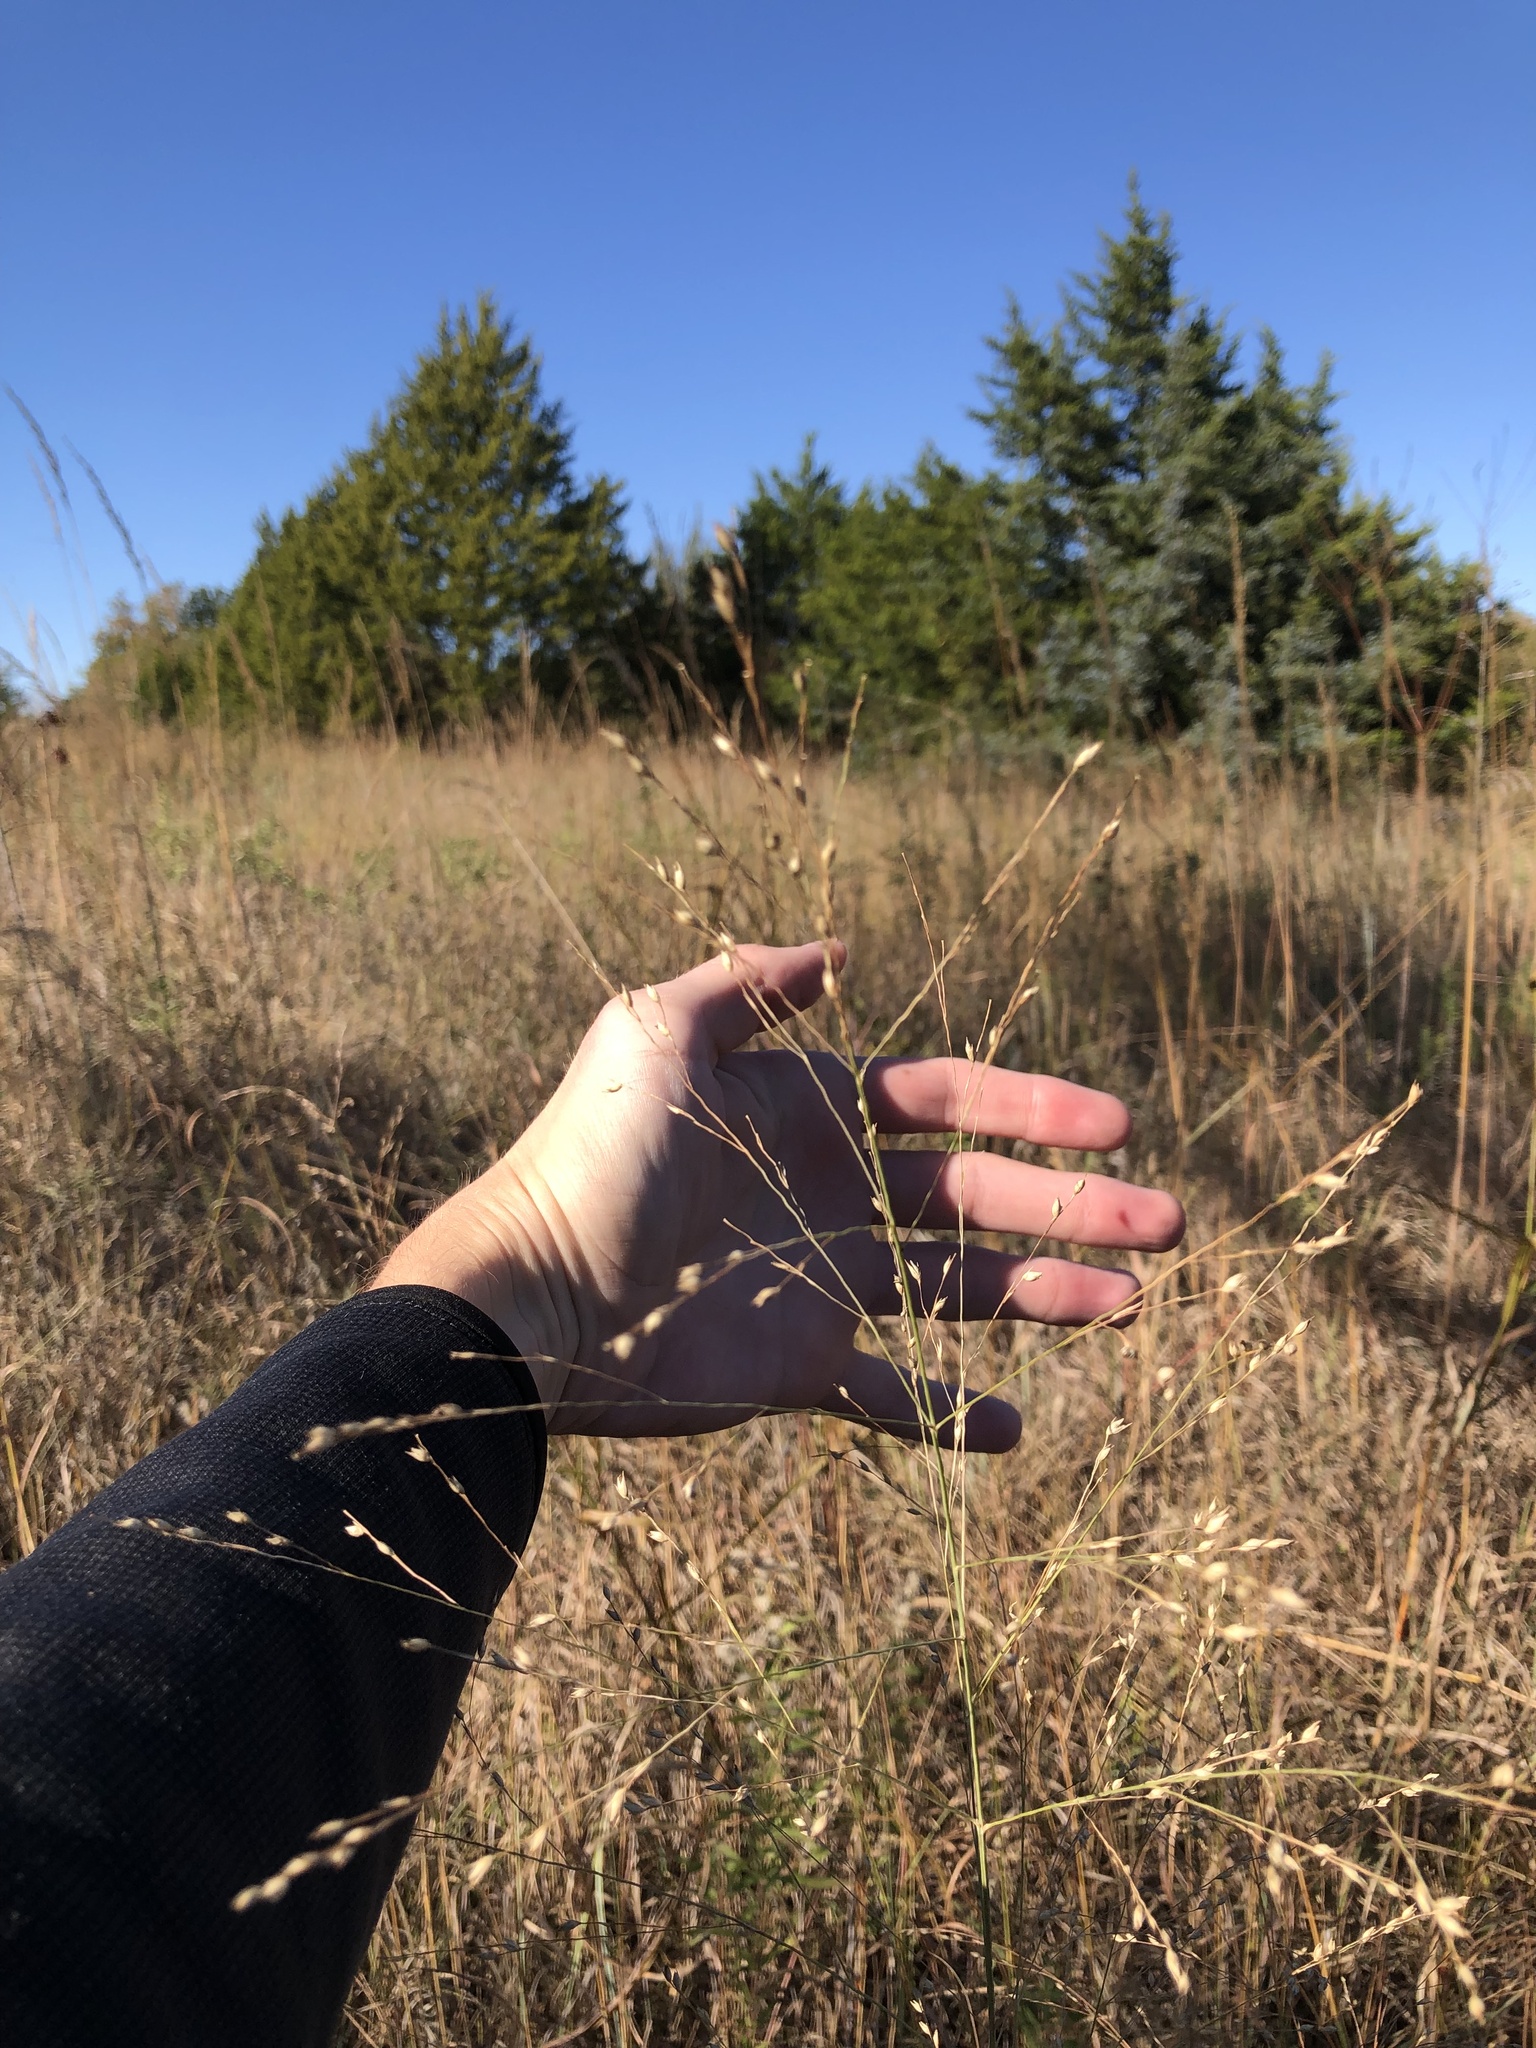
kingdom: Plantae
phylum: Tracheophyta
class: Liliopsida
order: Poales
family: Poaceae
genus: Panicum
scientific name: Panicum virgatum
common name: Switchgrass
